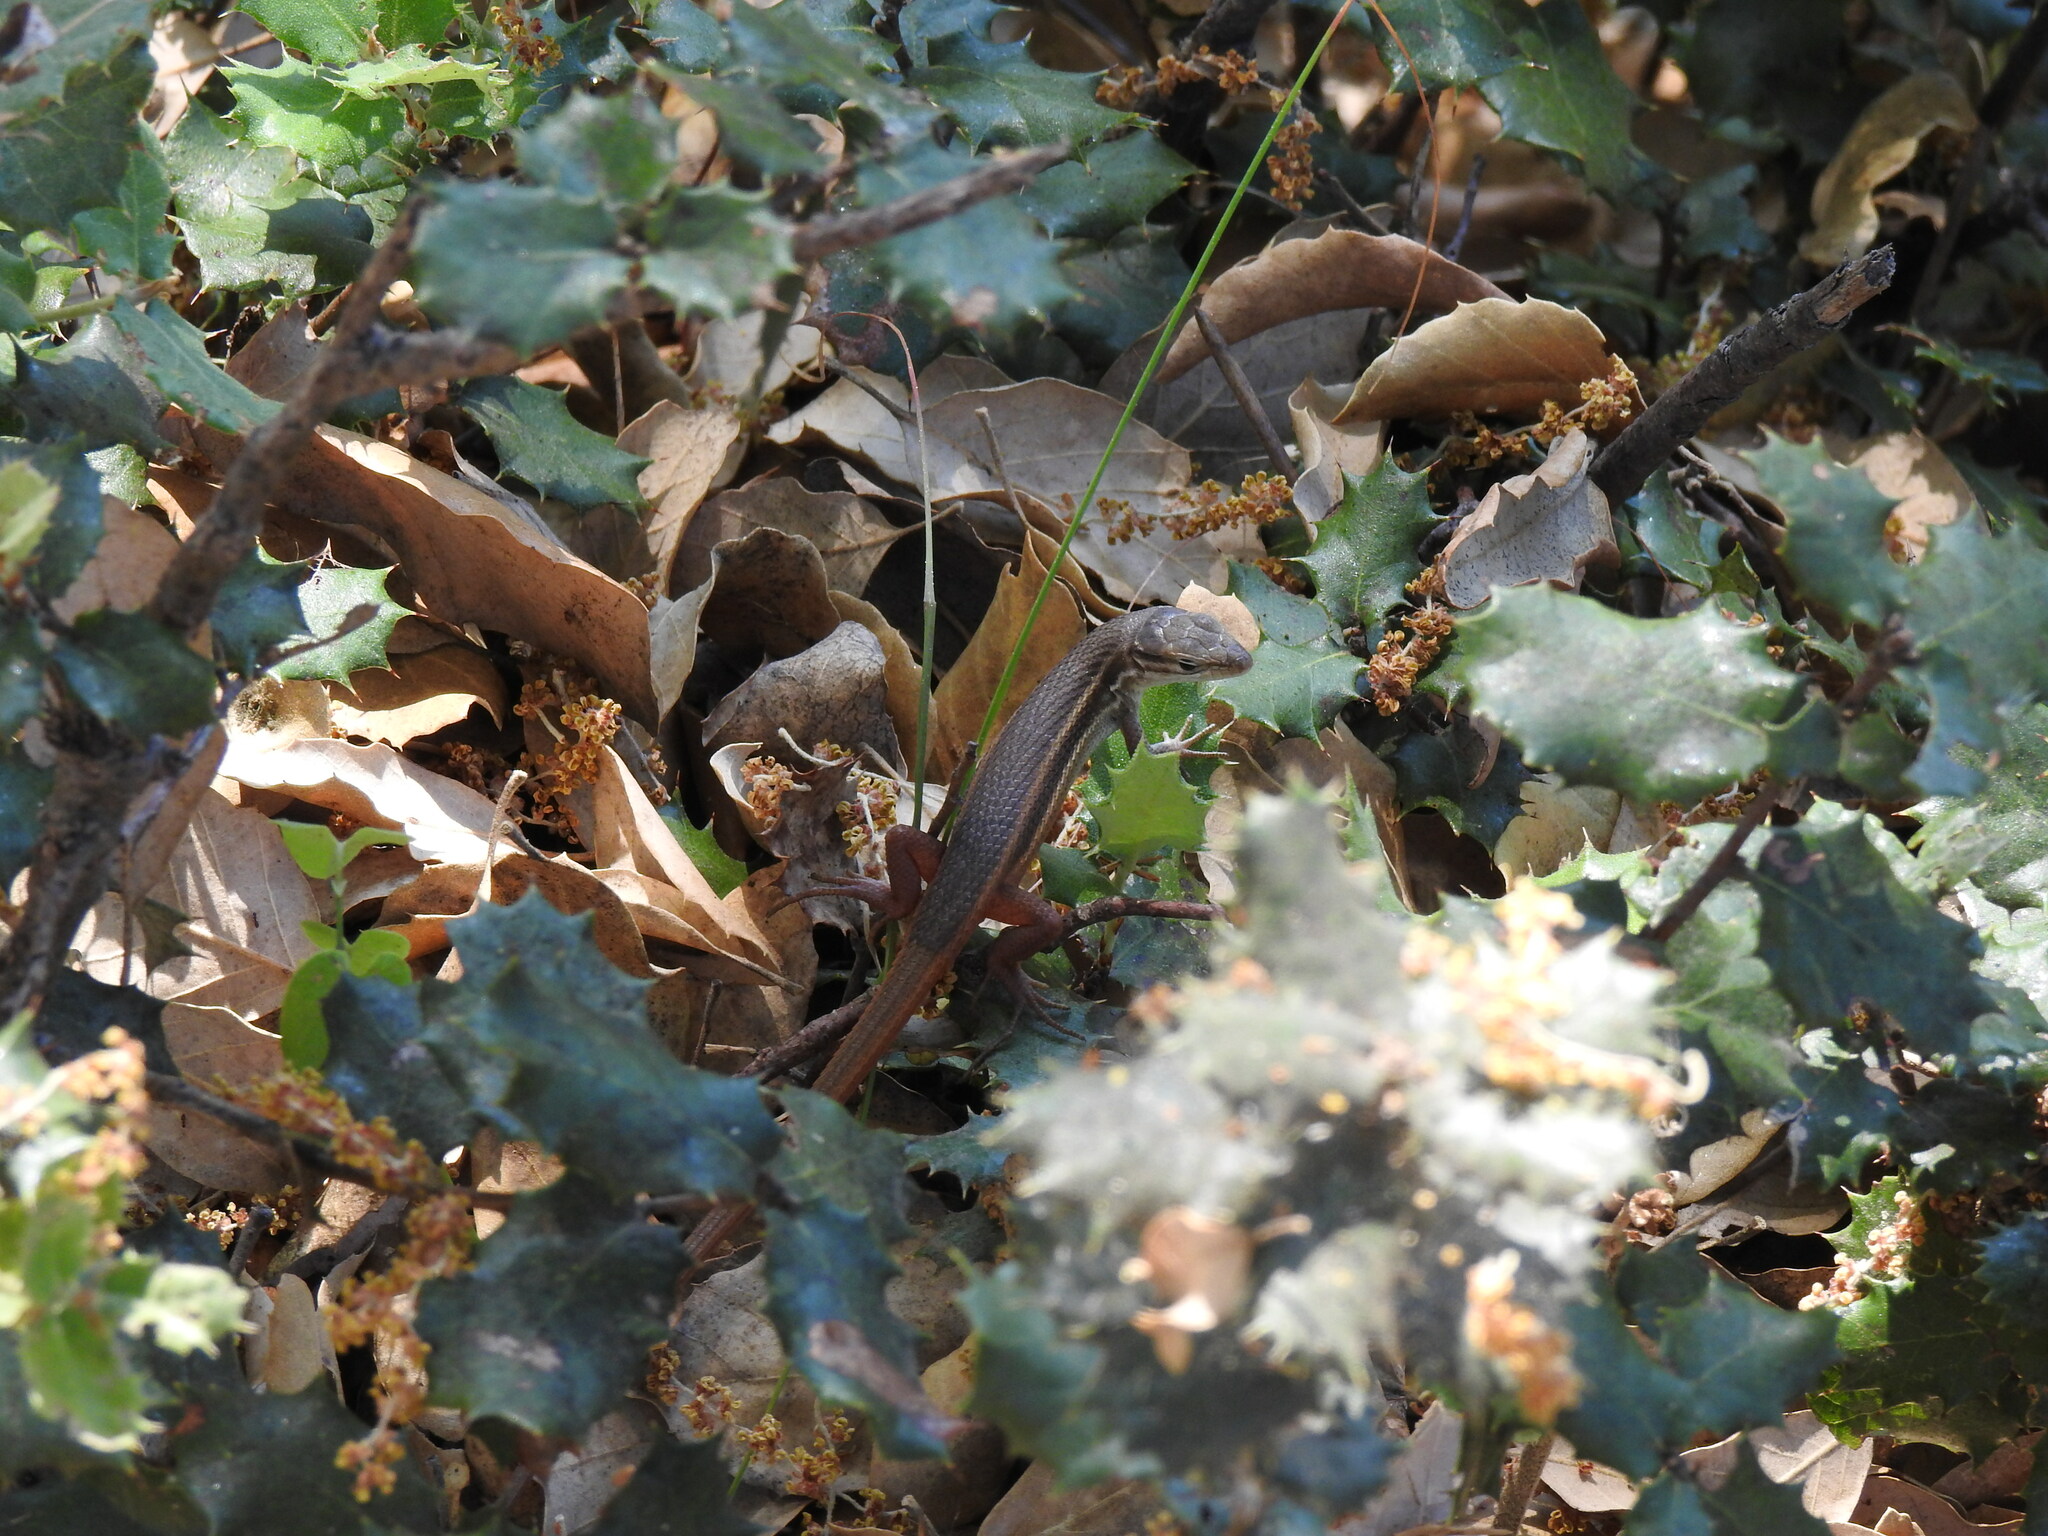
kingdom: Animalia
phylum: Chordata
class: Squamata
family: Lacertidae
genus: Psammodromus
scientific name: Psammodromus algirus
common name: Algerian psammodromus
